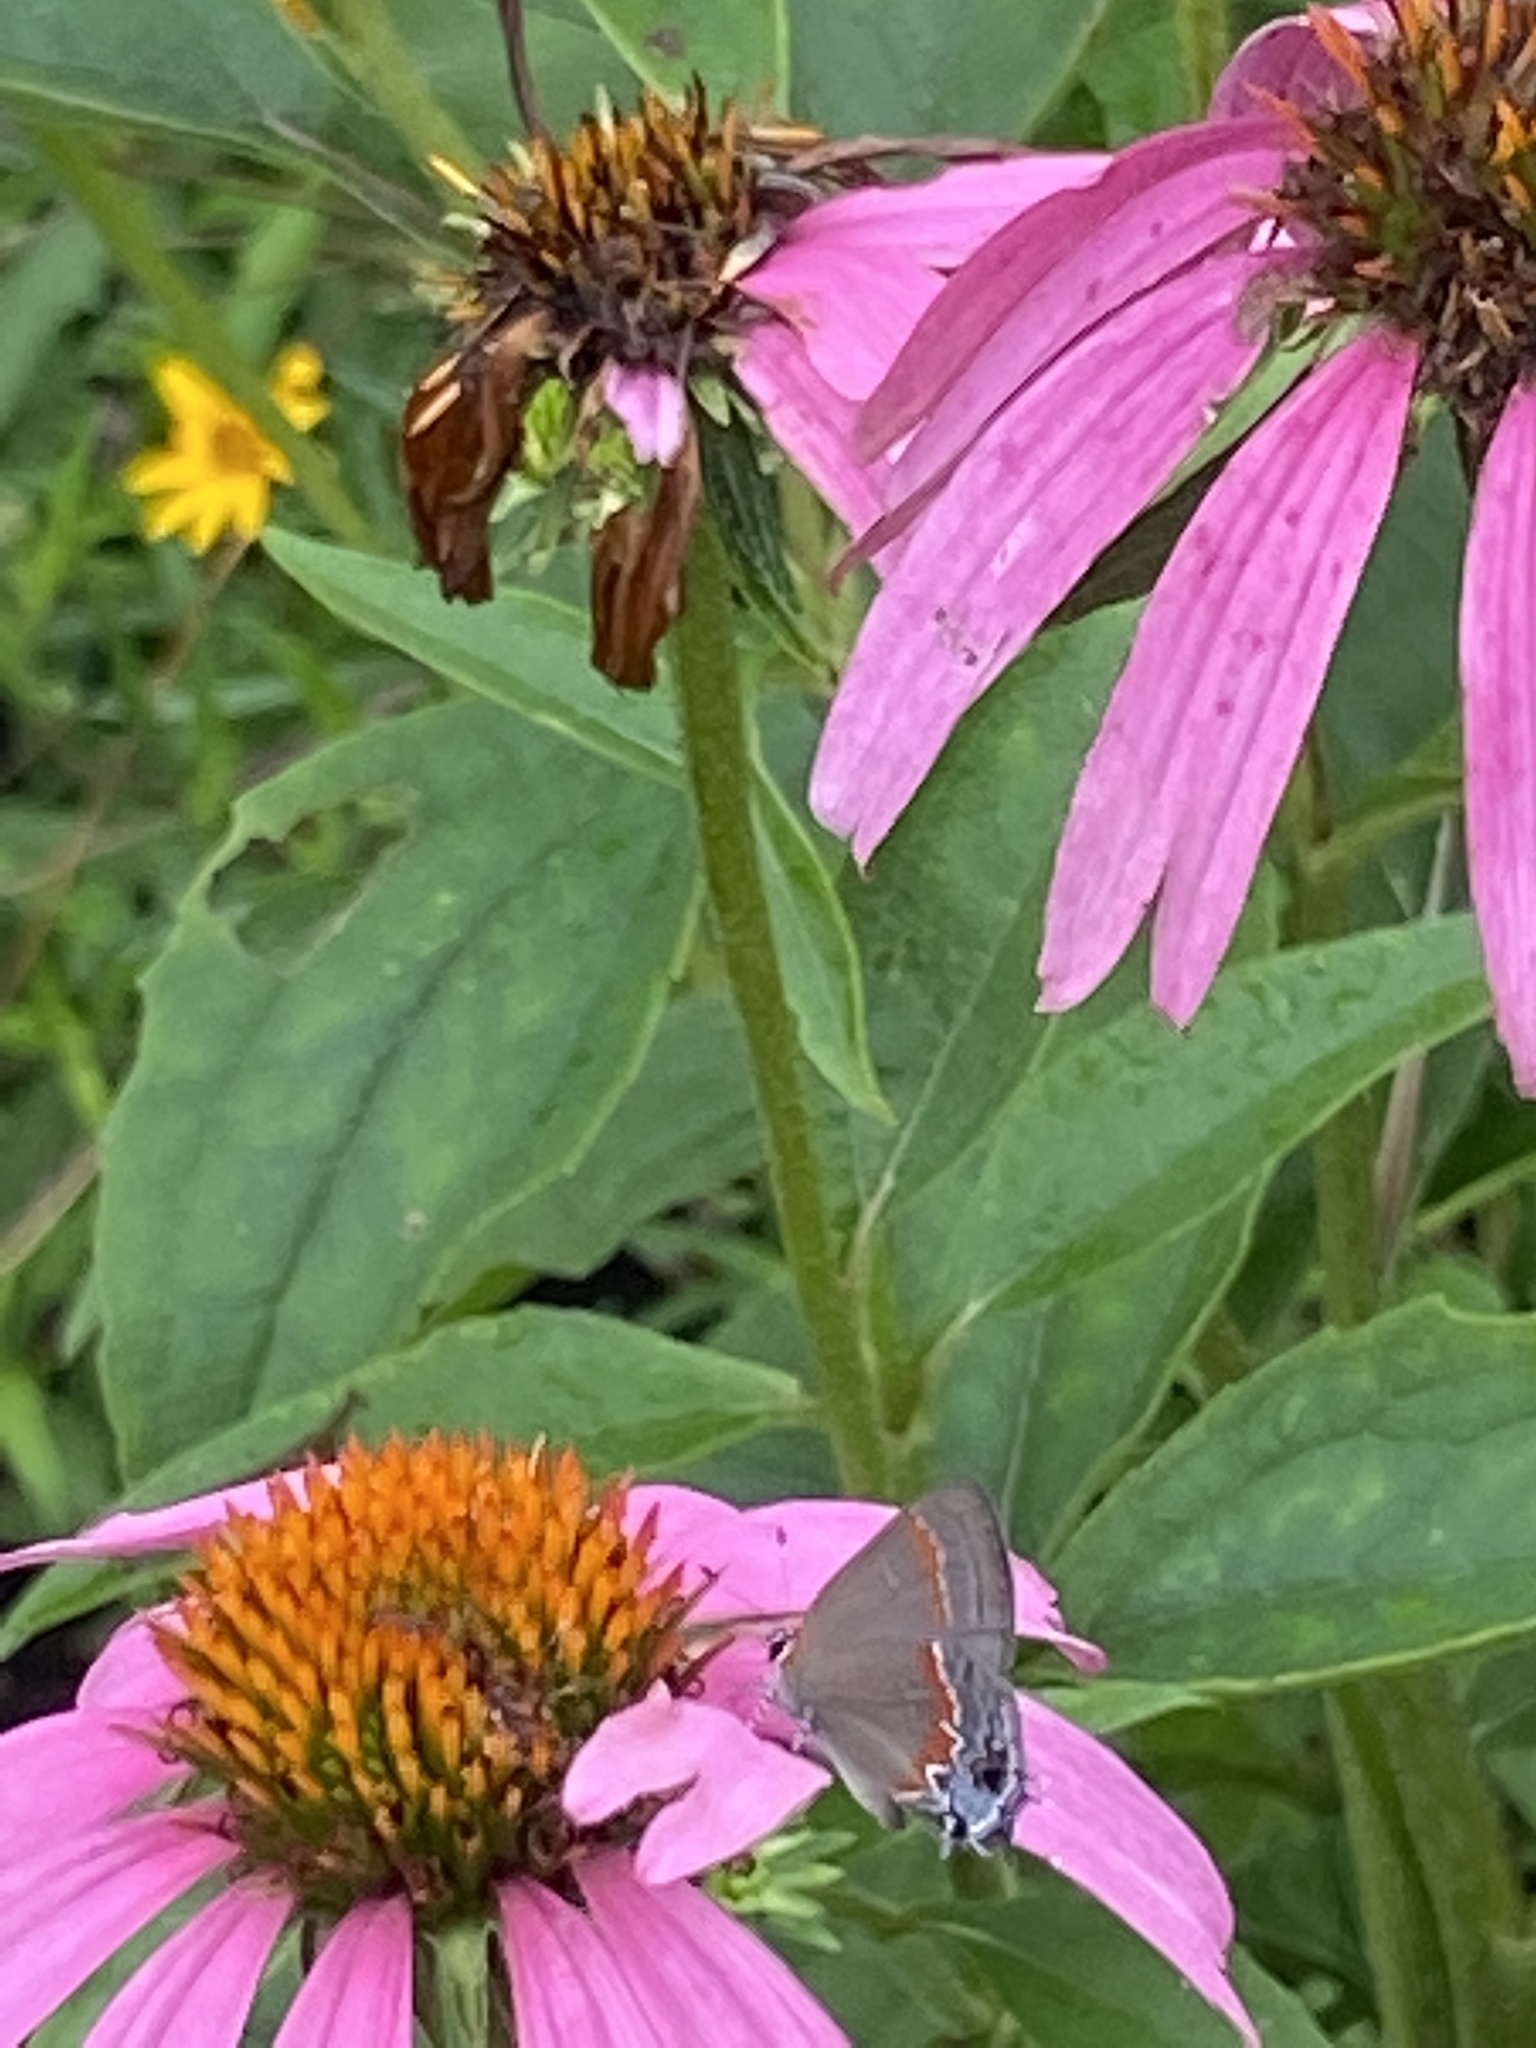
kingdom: Animalia
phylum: Arthropoda
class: Insecta
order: Lepidoptera
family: Lycaenidae
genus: Calycopis
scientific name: Calycopis cecrops
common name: Red-banded hairstreak
